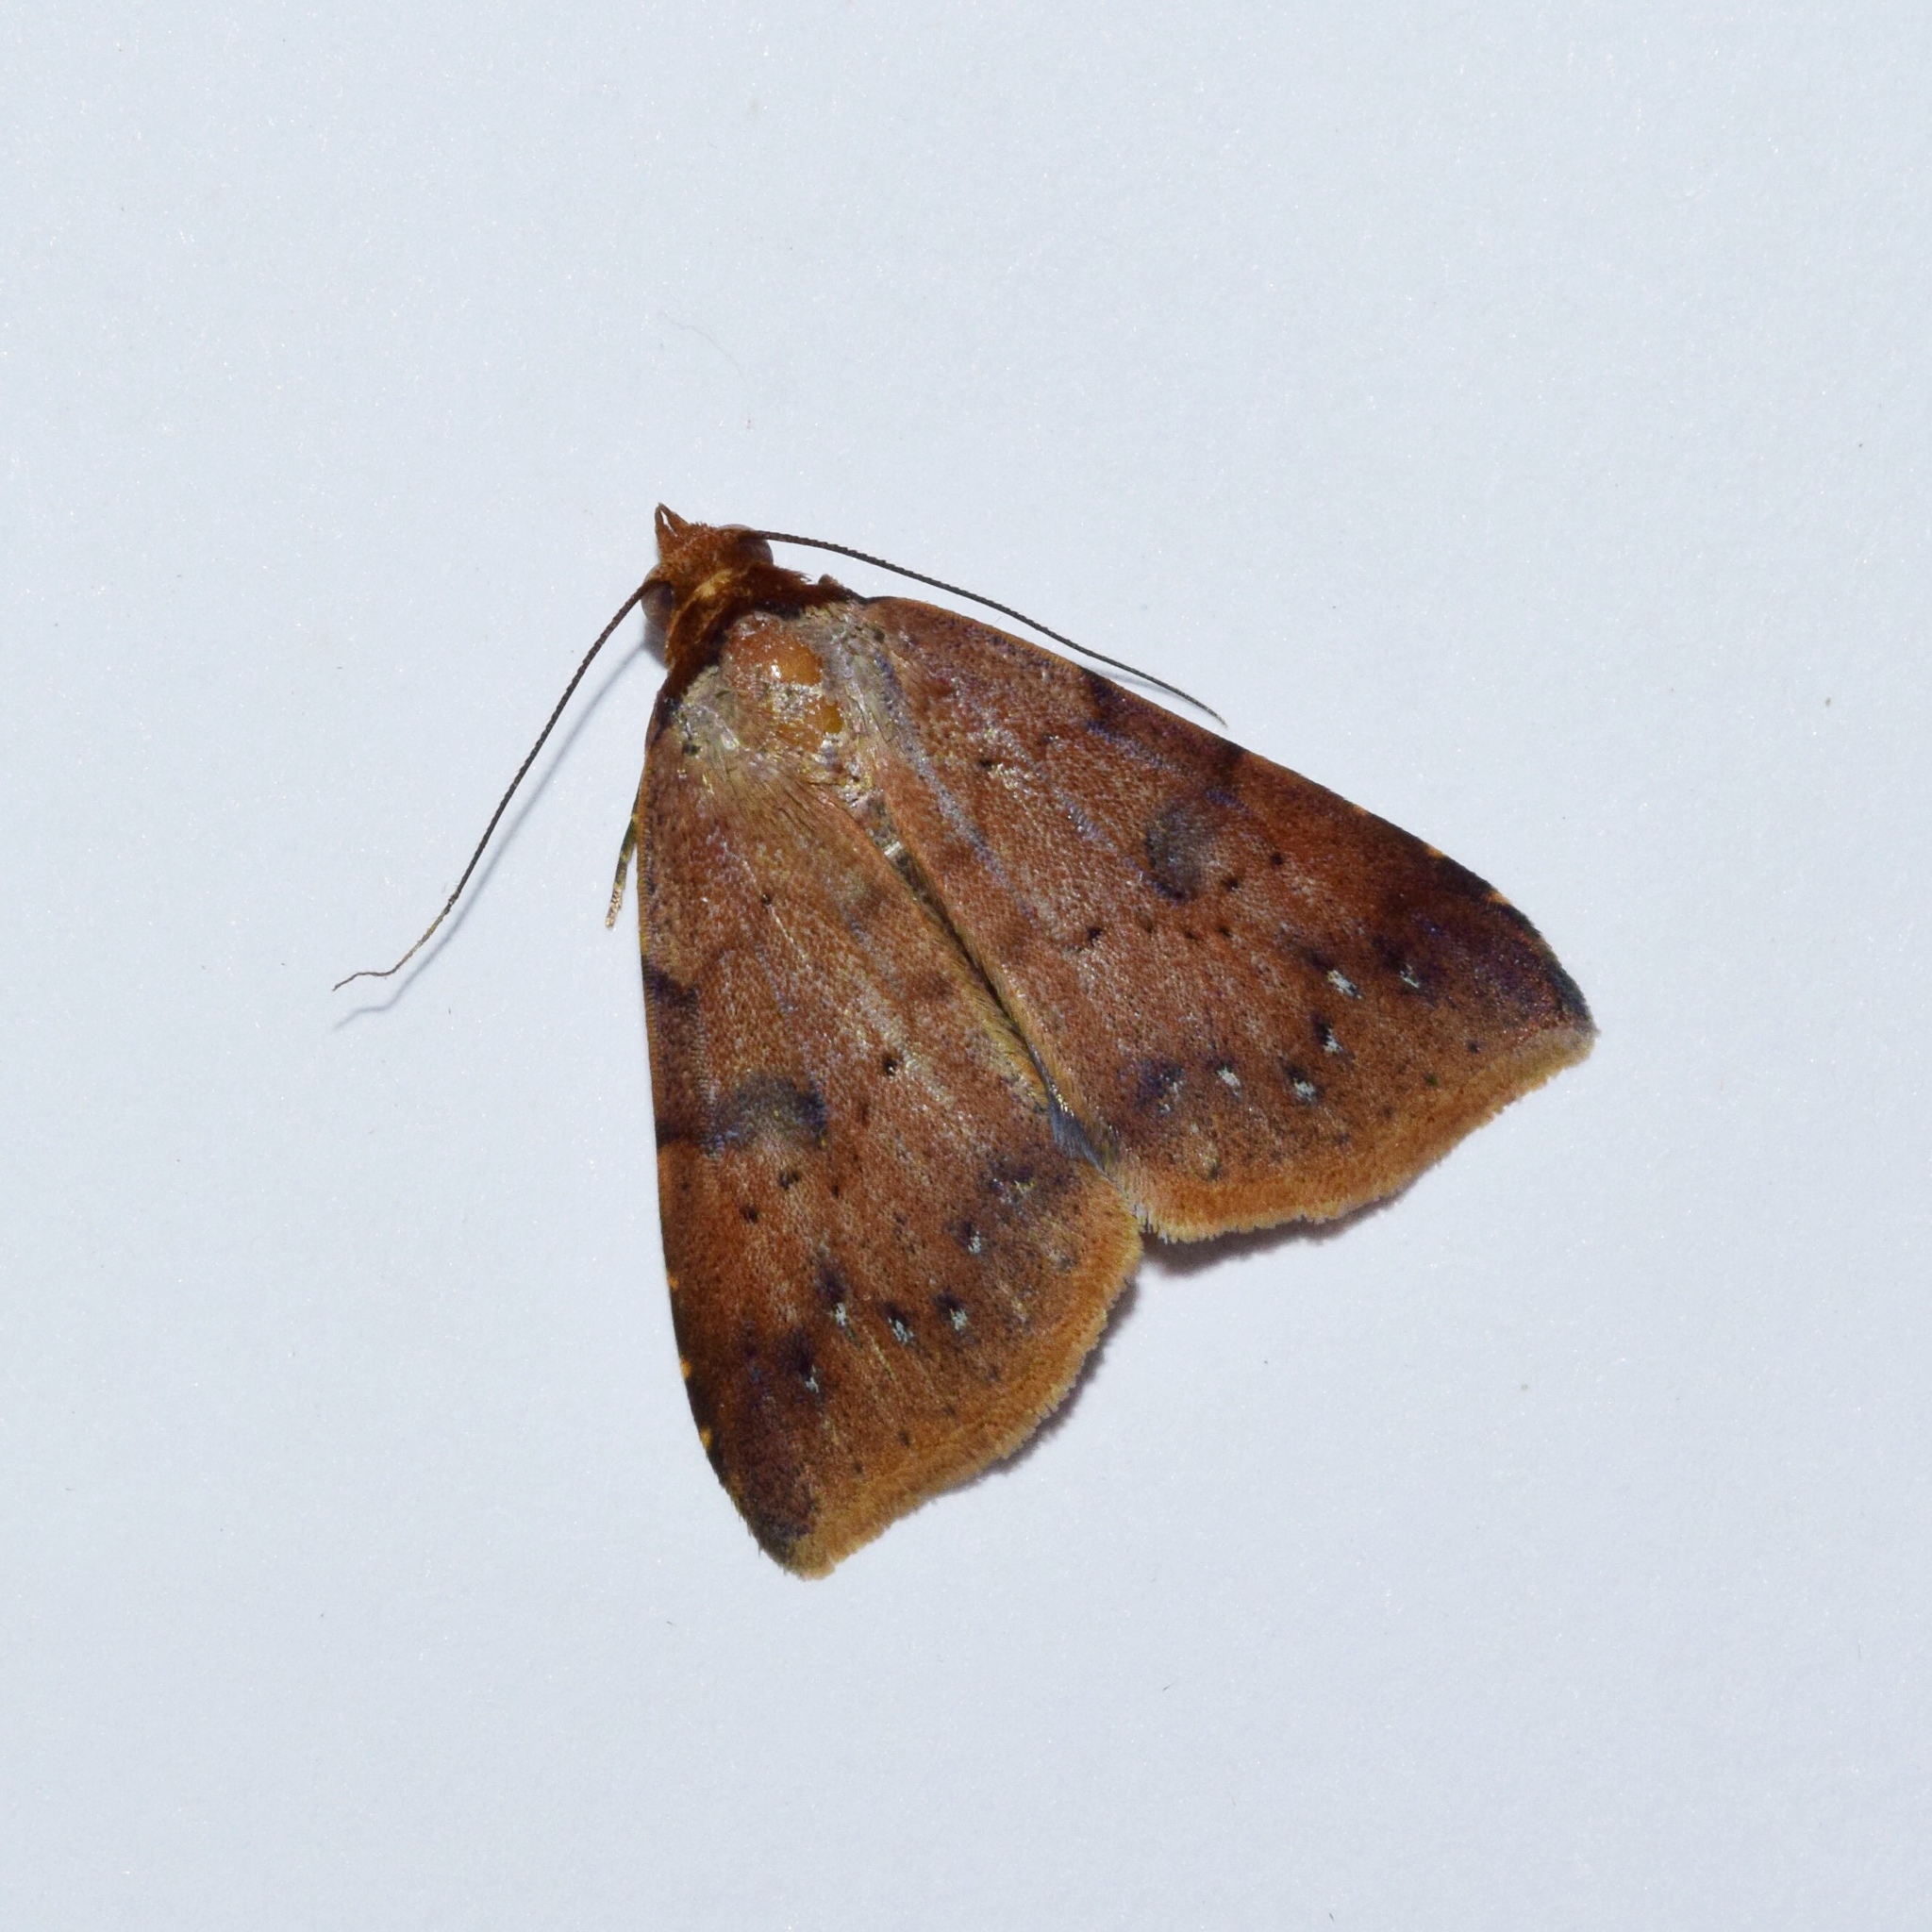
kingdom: Animalia
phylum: Arthropoda
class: Insecta
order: Lepidoptera
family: Erebidae
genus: Plecoptera
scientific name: Plecoptera poderis
